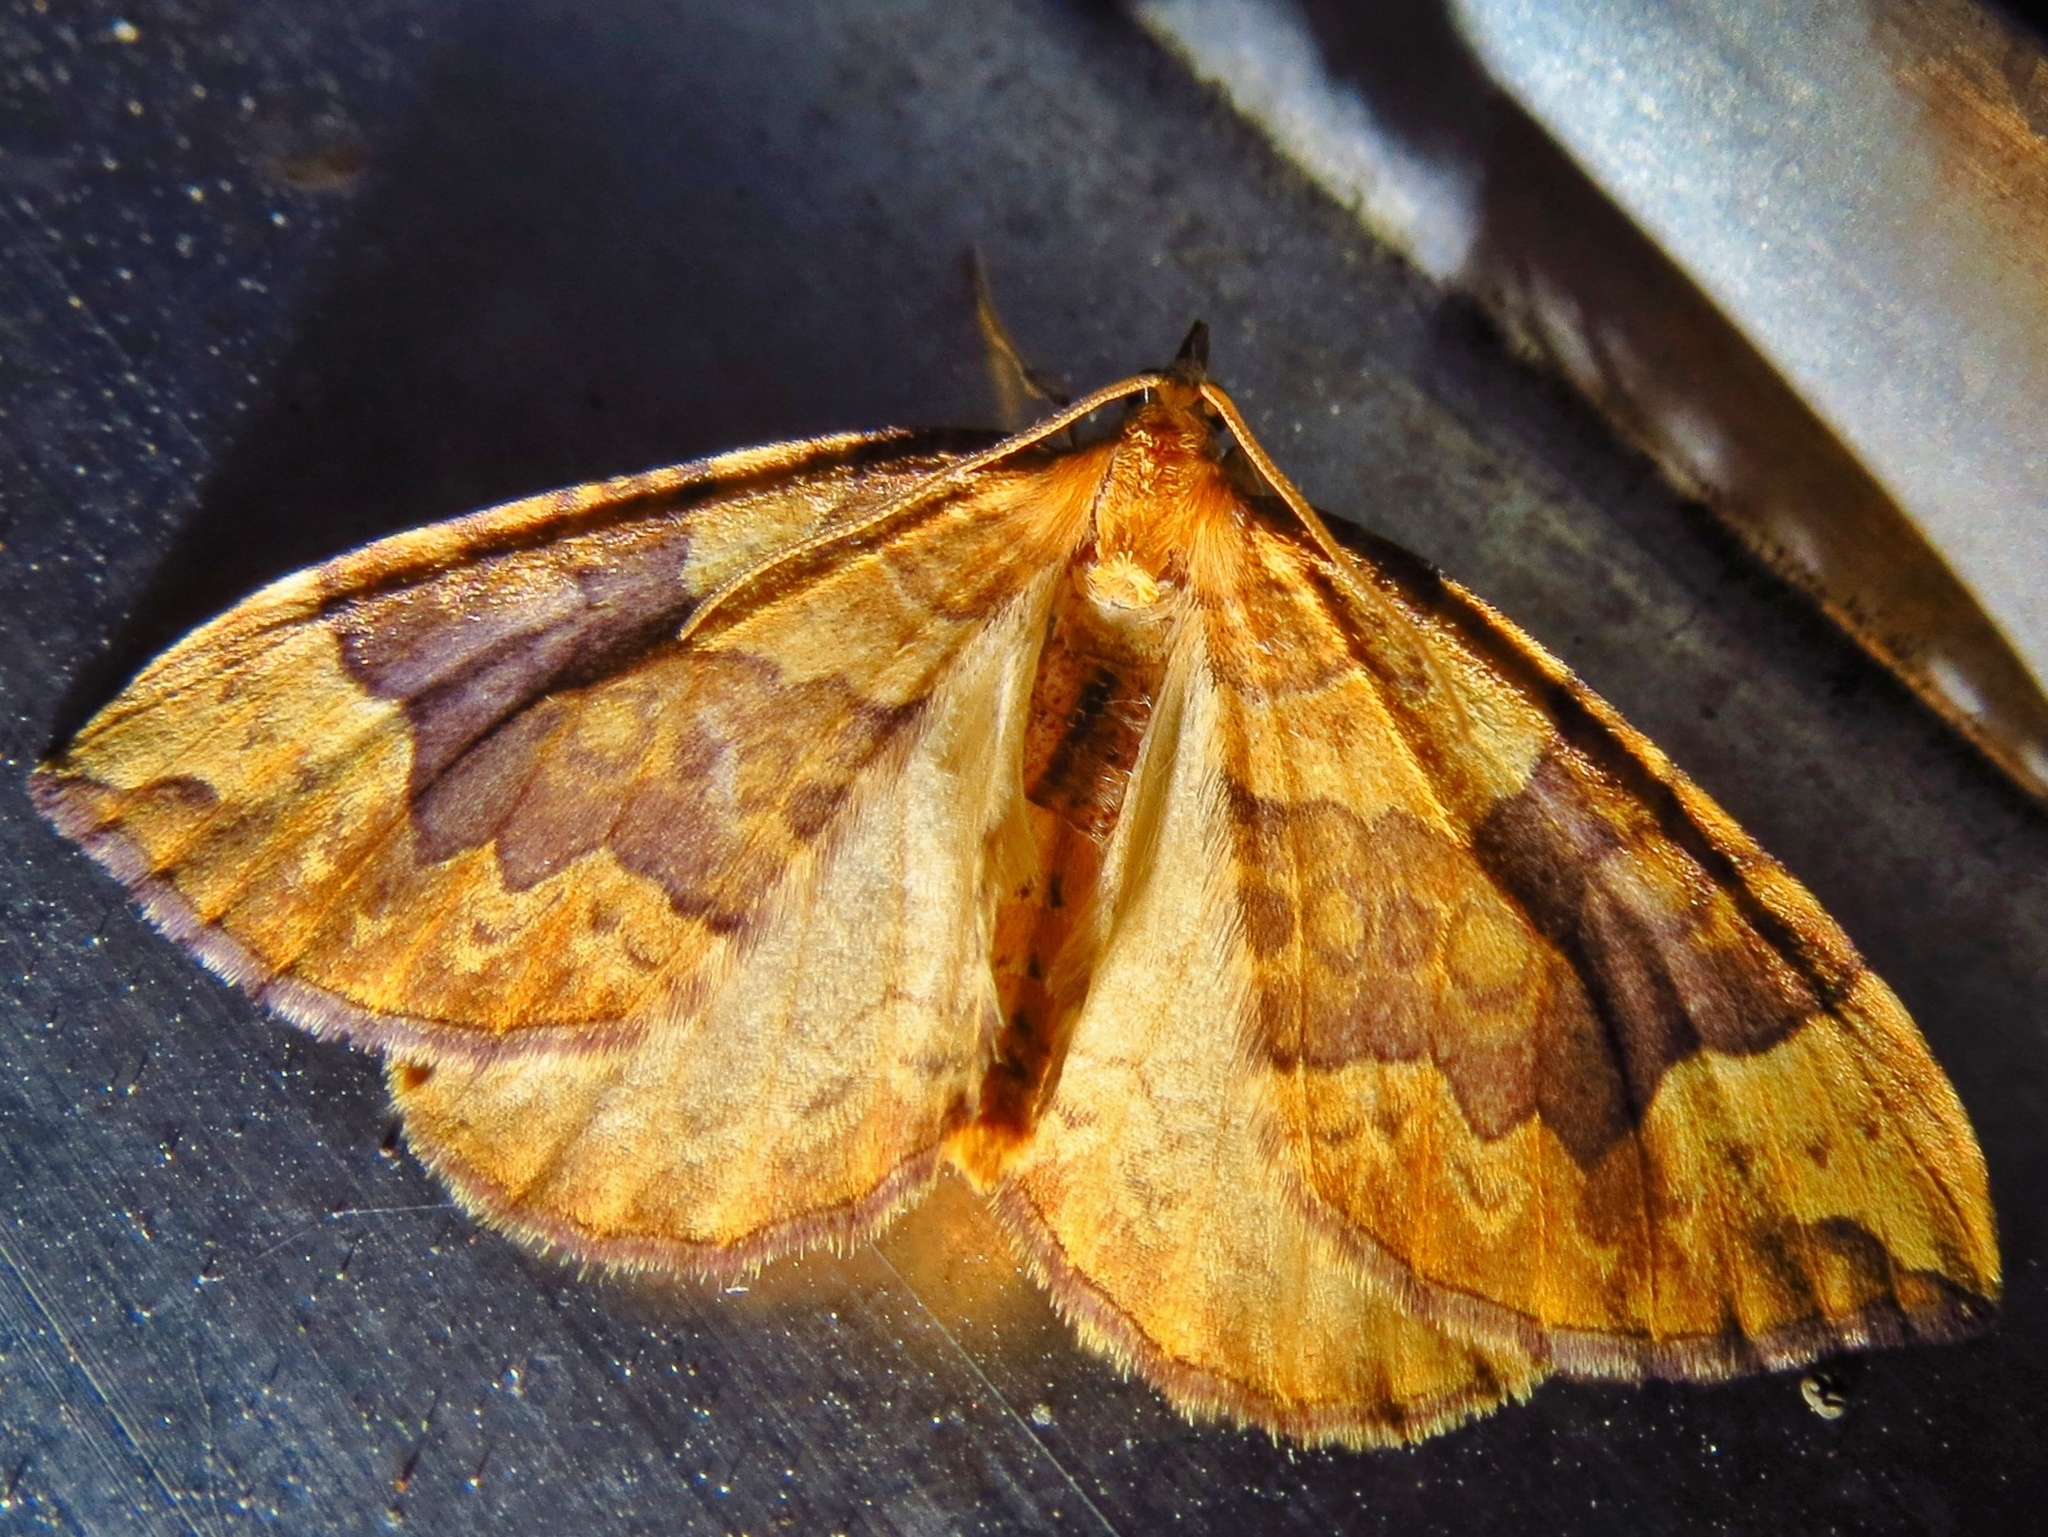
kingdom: Animalia
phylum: Arthropoda
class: Insecta
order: Lepidoptera
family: Geometridae
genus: Eulithis
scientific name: Eulithis populata
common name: Northern spinach
